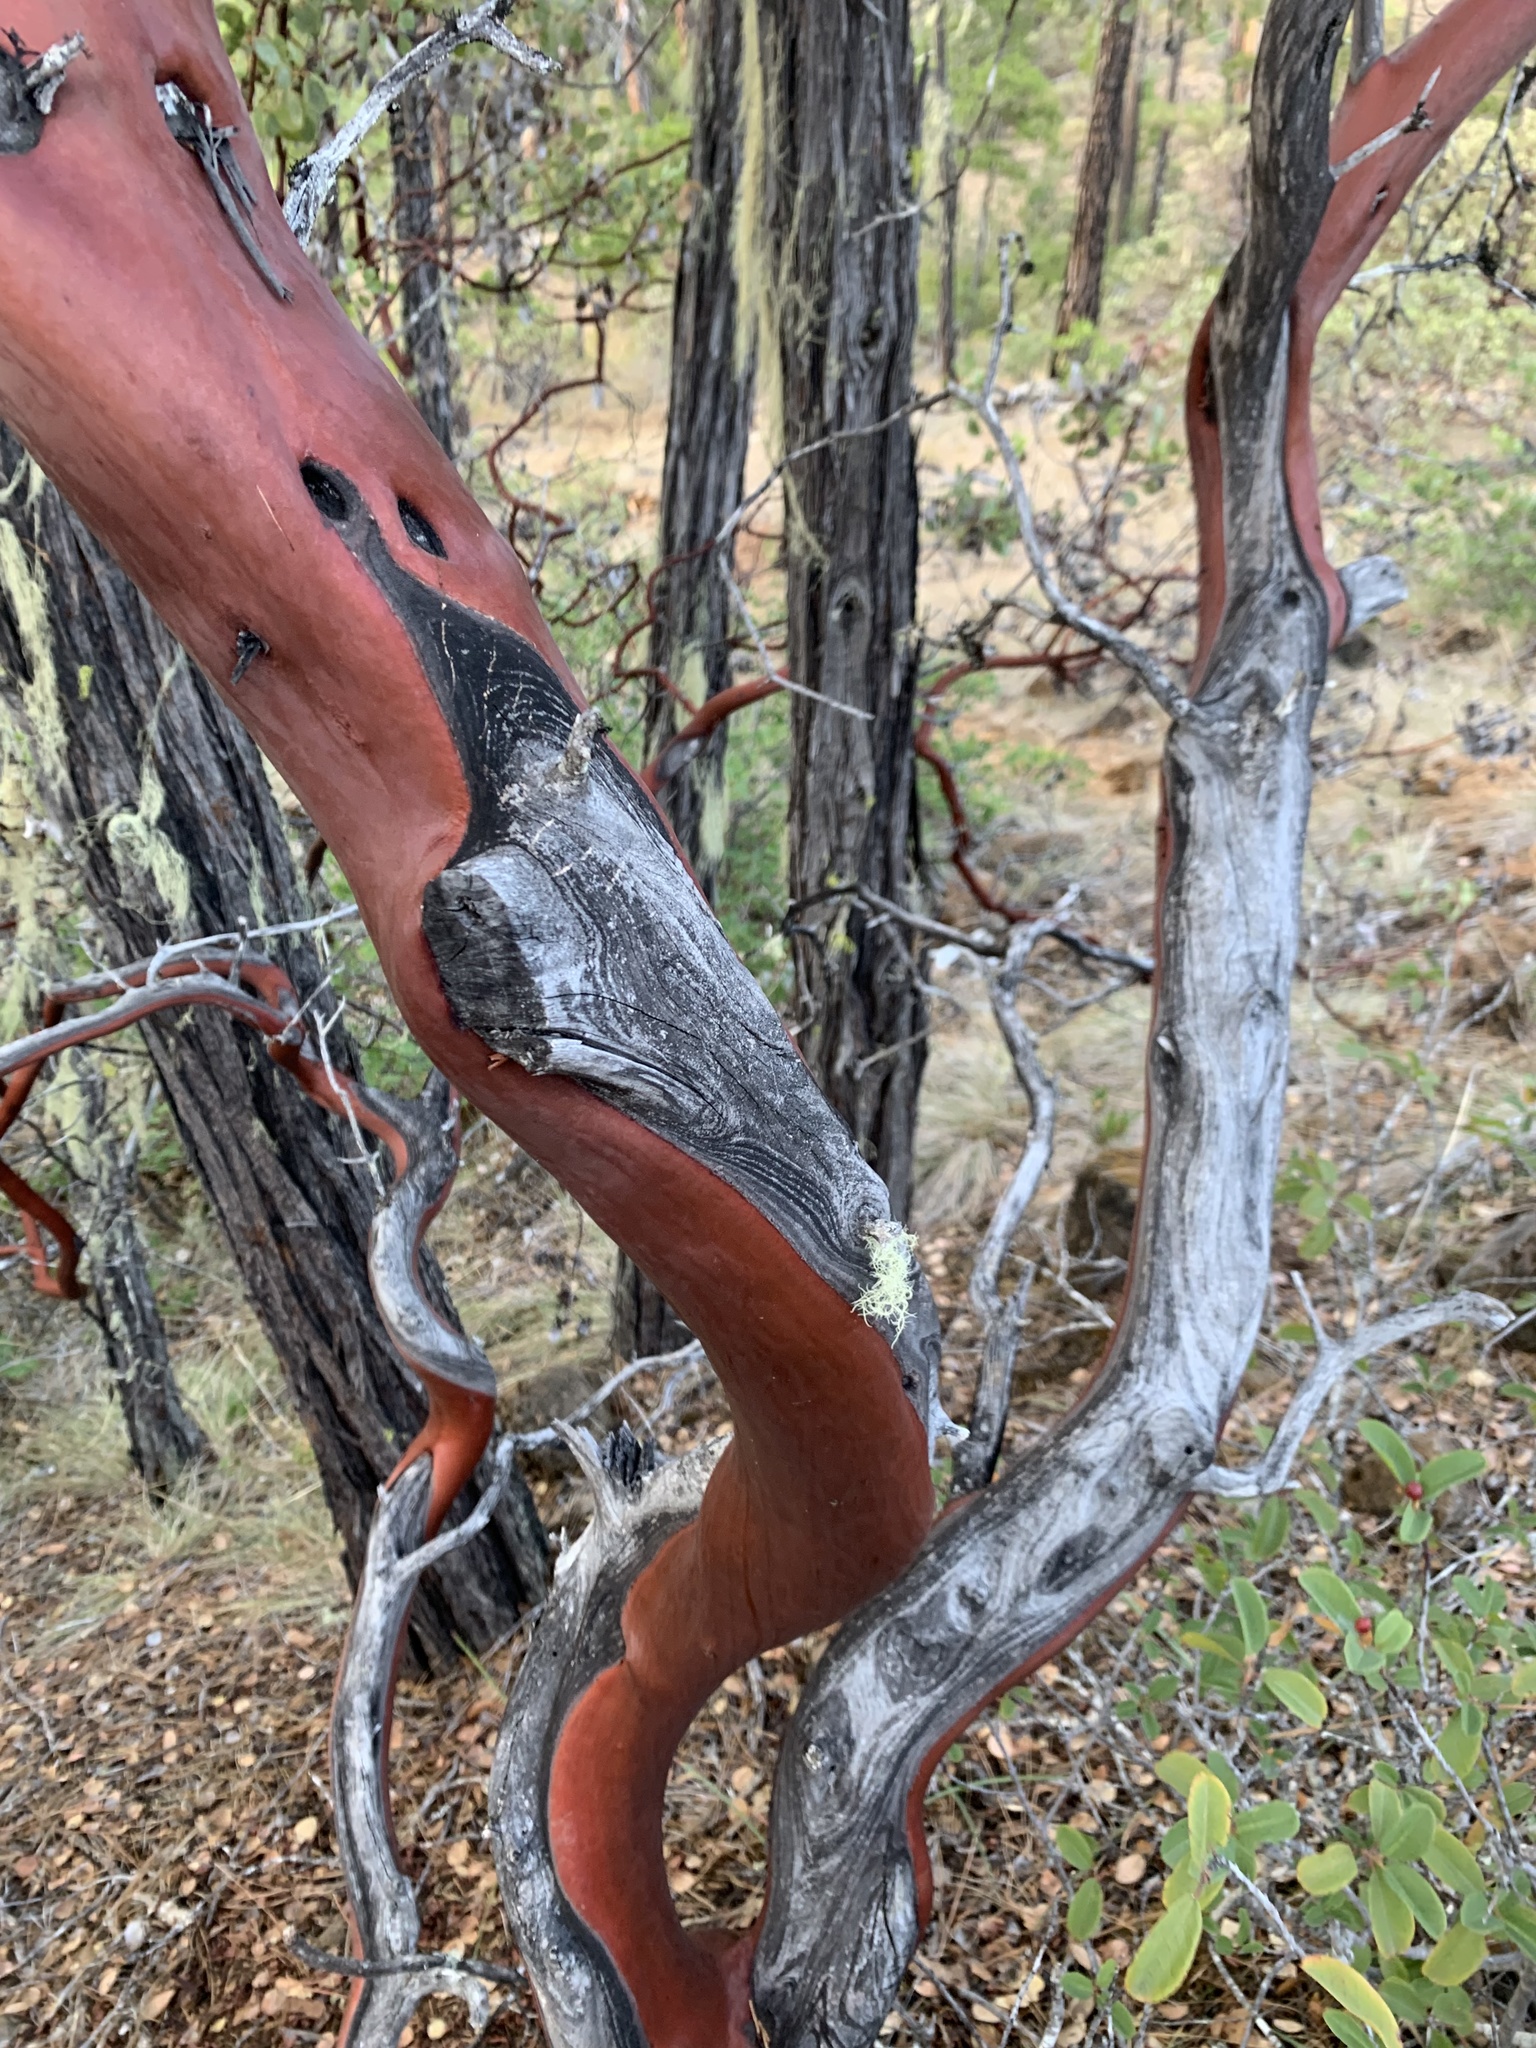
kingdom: Plantae
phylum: Tracheophyta
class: Magnoliopsida
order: Ericales
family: Ericaceae
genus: Arctostaphylos
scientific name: Arctostaphylos viscida
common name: White-leaf manzanita
